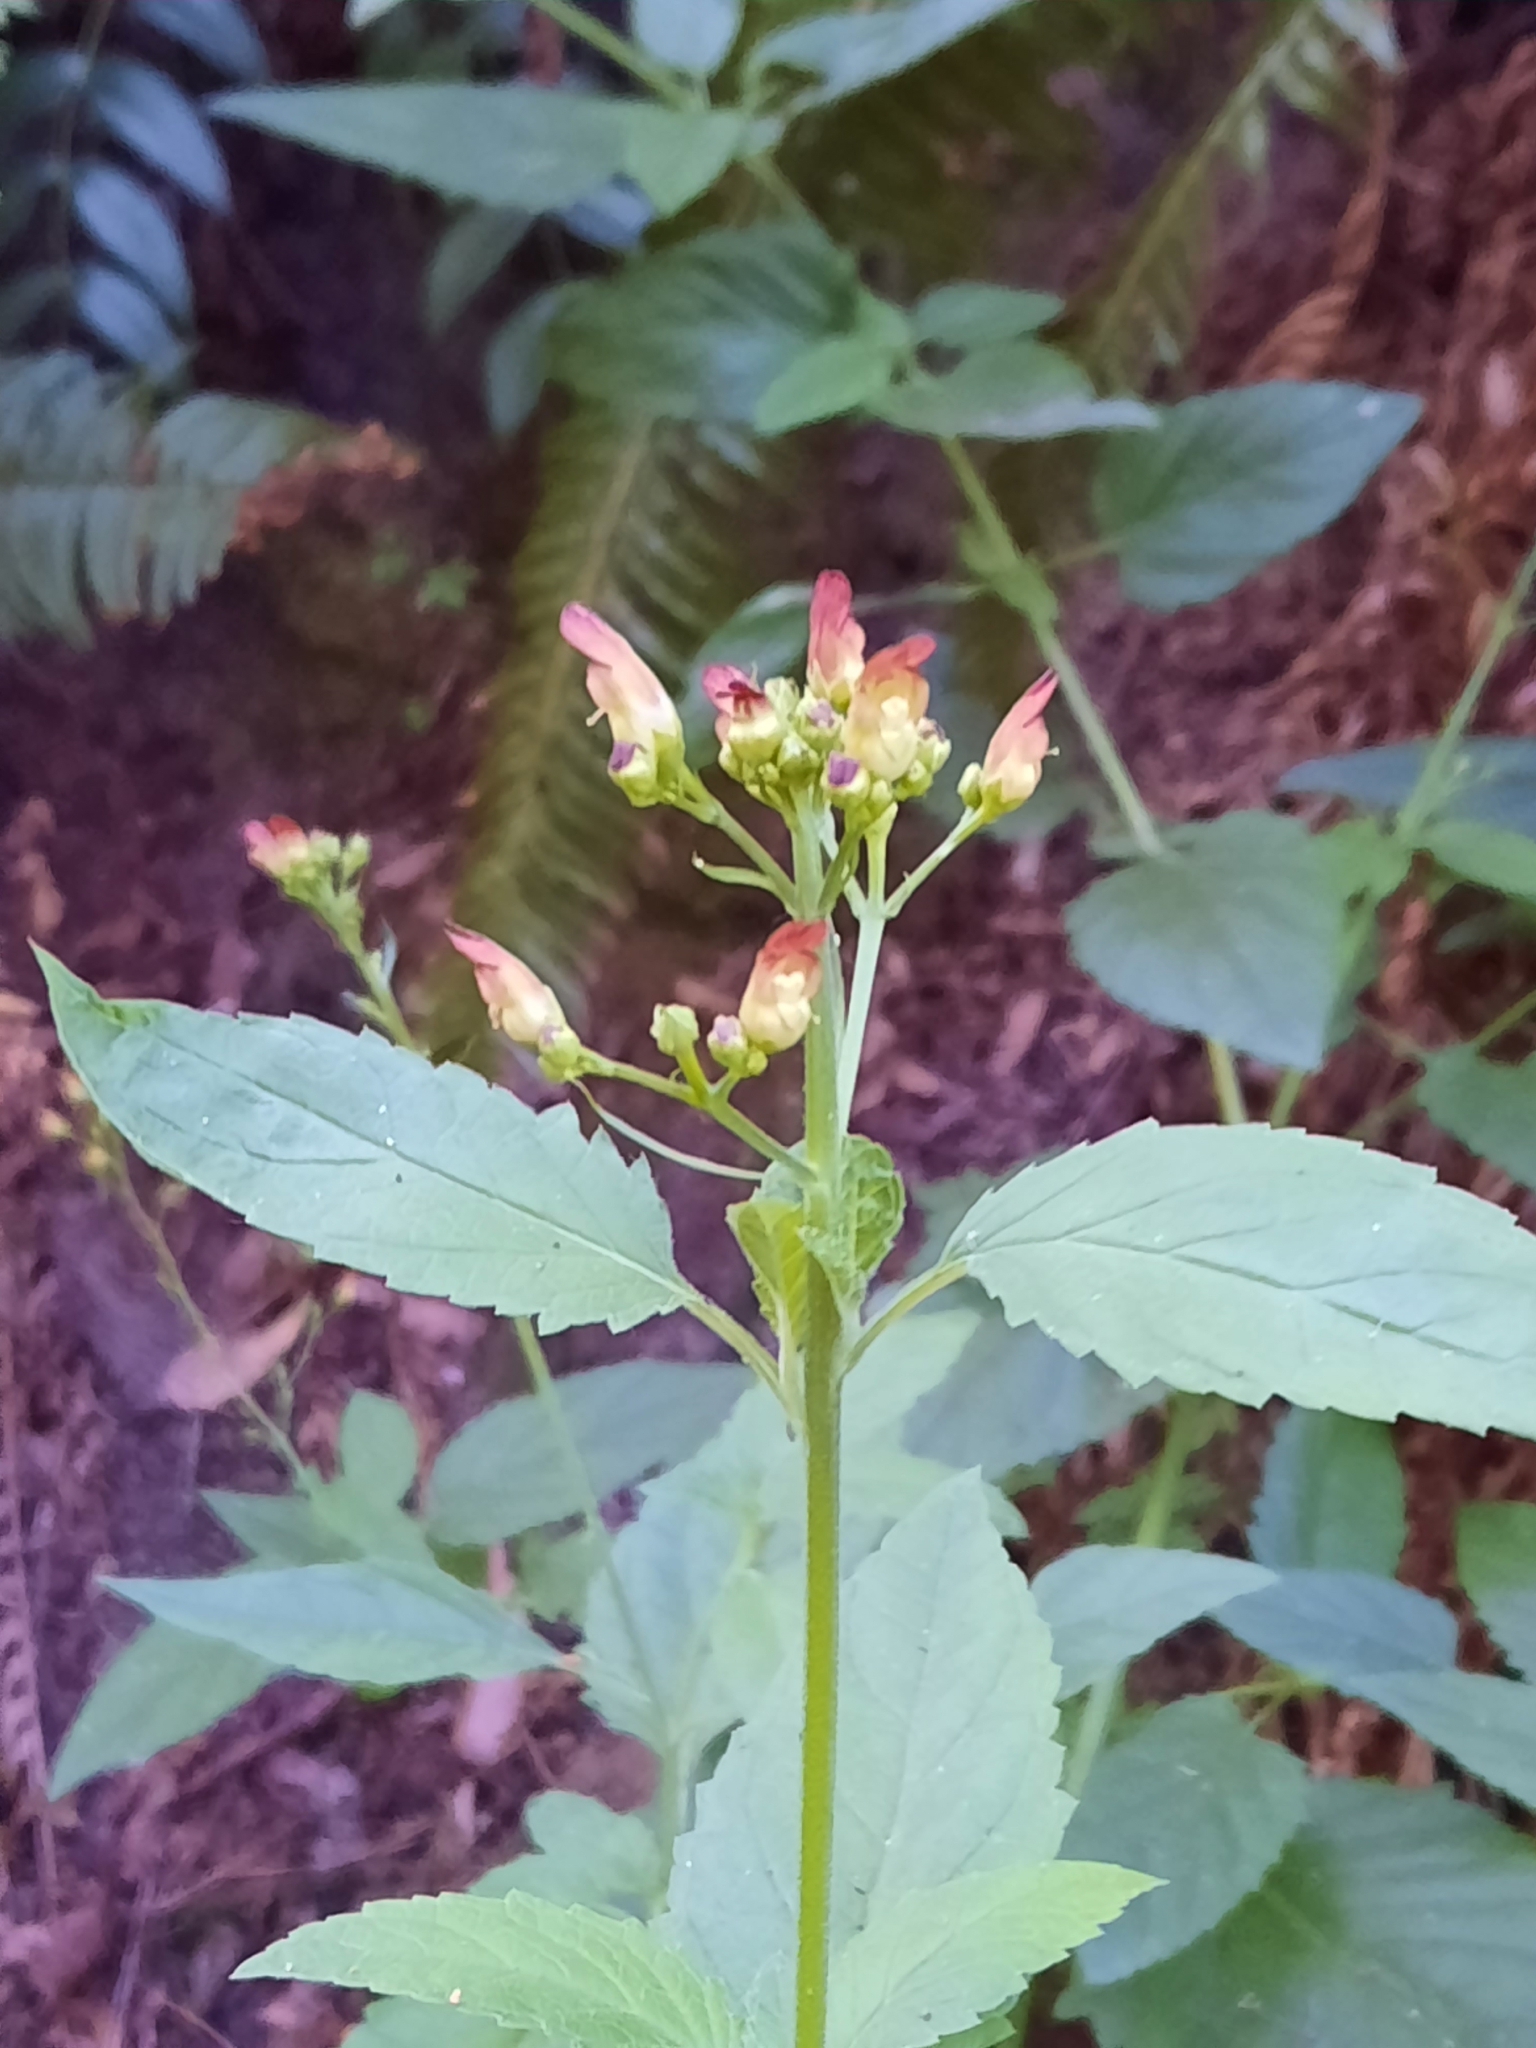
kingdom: Plantae
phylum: Tracheophyta
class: Magnoliopsida
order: Lamiales
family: Scrophulariaceae
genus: Scrophularia
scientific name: Scrophularia californica
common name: California figwort
